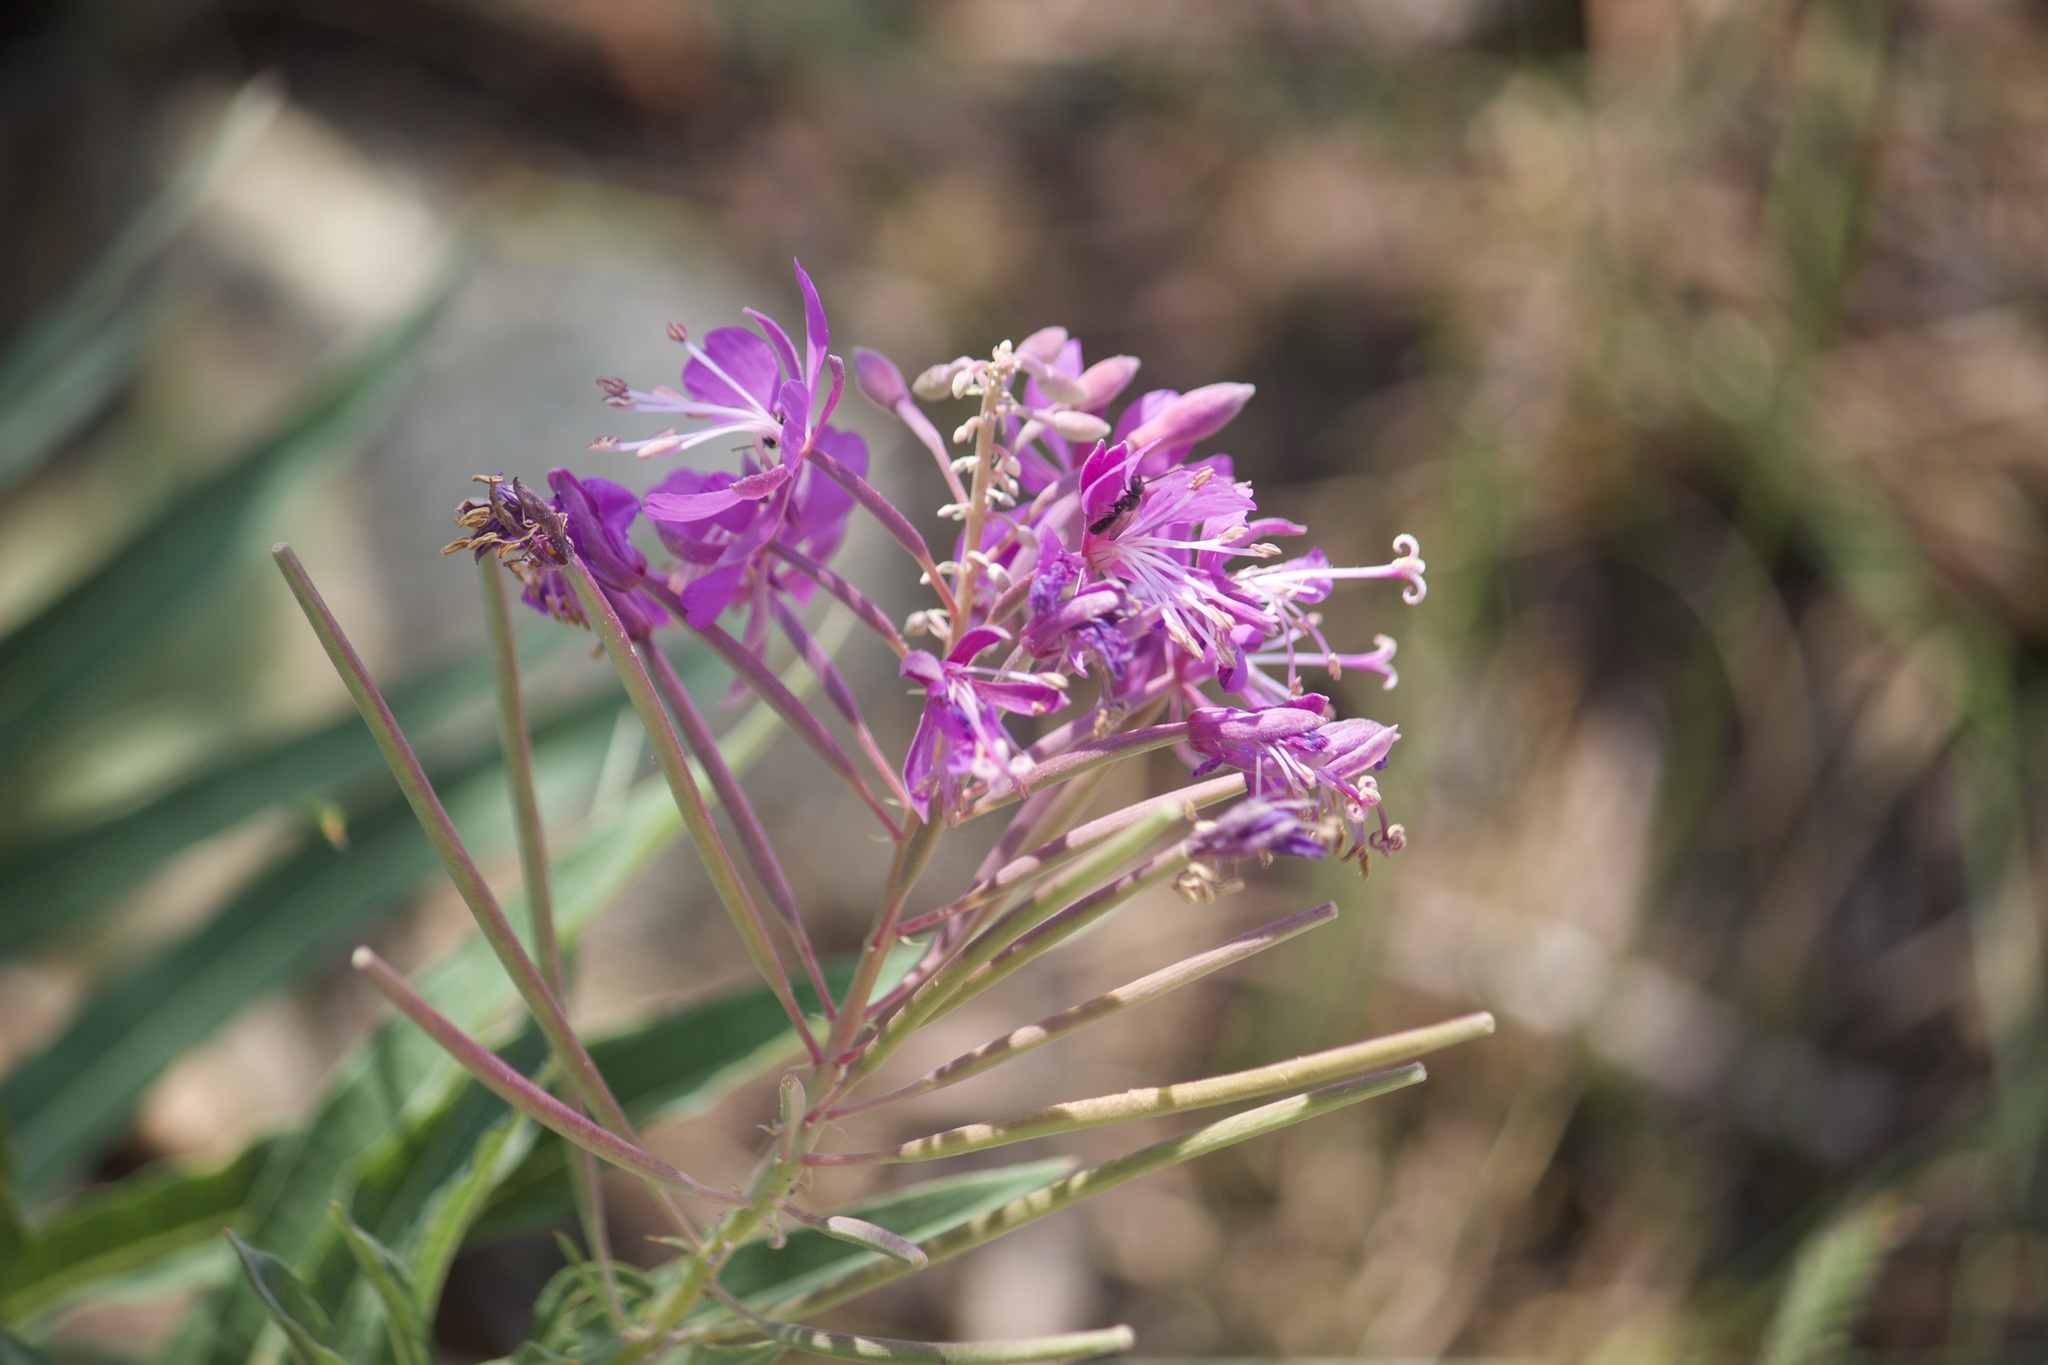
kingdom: Plantae
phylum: Tracheophyta
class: Magnoliopsida
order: Myrtales
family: Onagraceae
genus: Chamaenerion
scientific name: Chamaenerion angustifolium
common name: Fireweed
